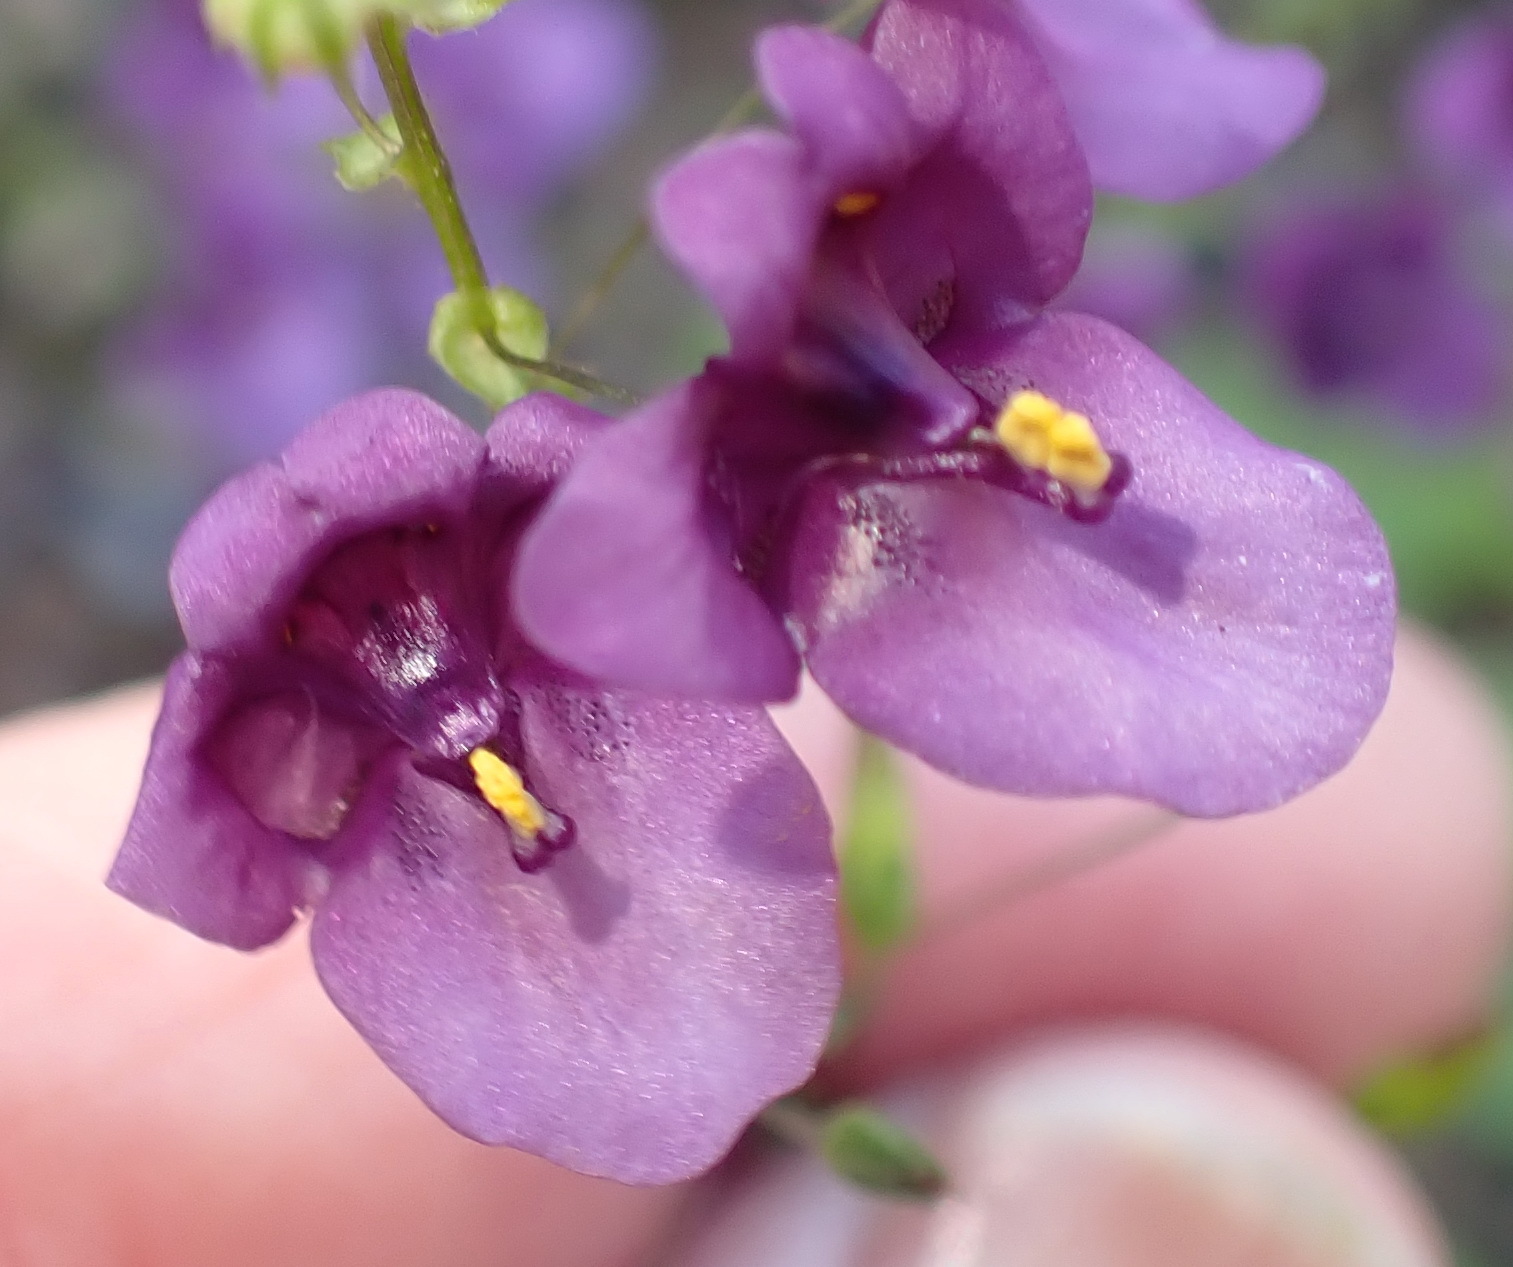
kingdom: Plantae
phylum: Tracheophyta
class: Magnoliopsida
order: Lamiales
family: Scrophulariaceae
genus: Diascia
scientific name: Diascia parviflora
